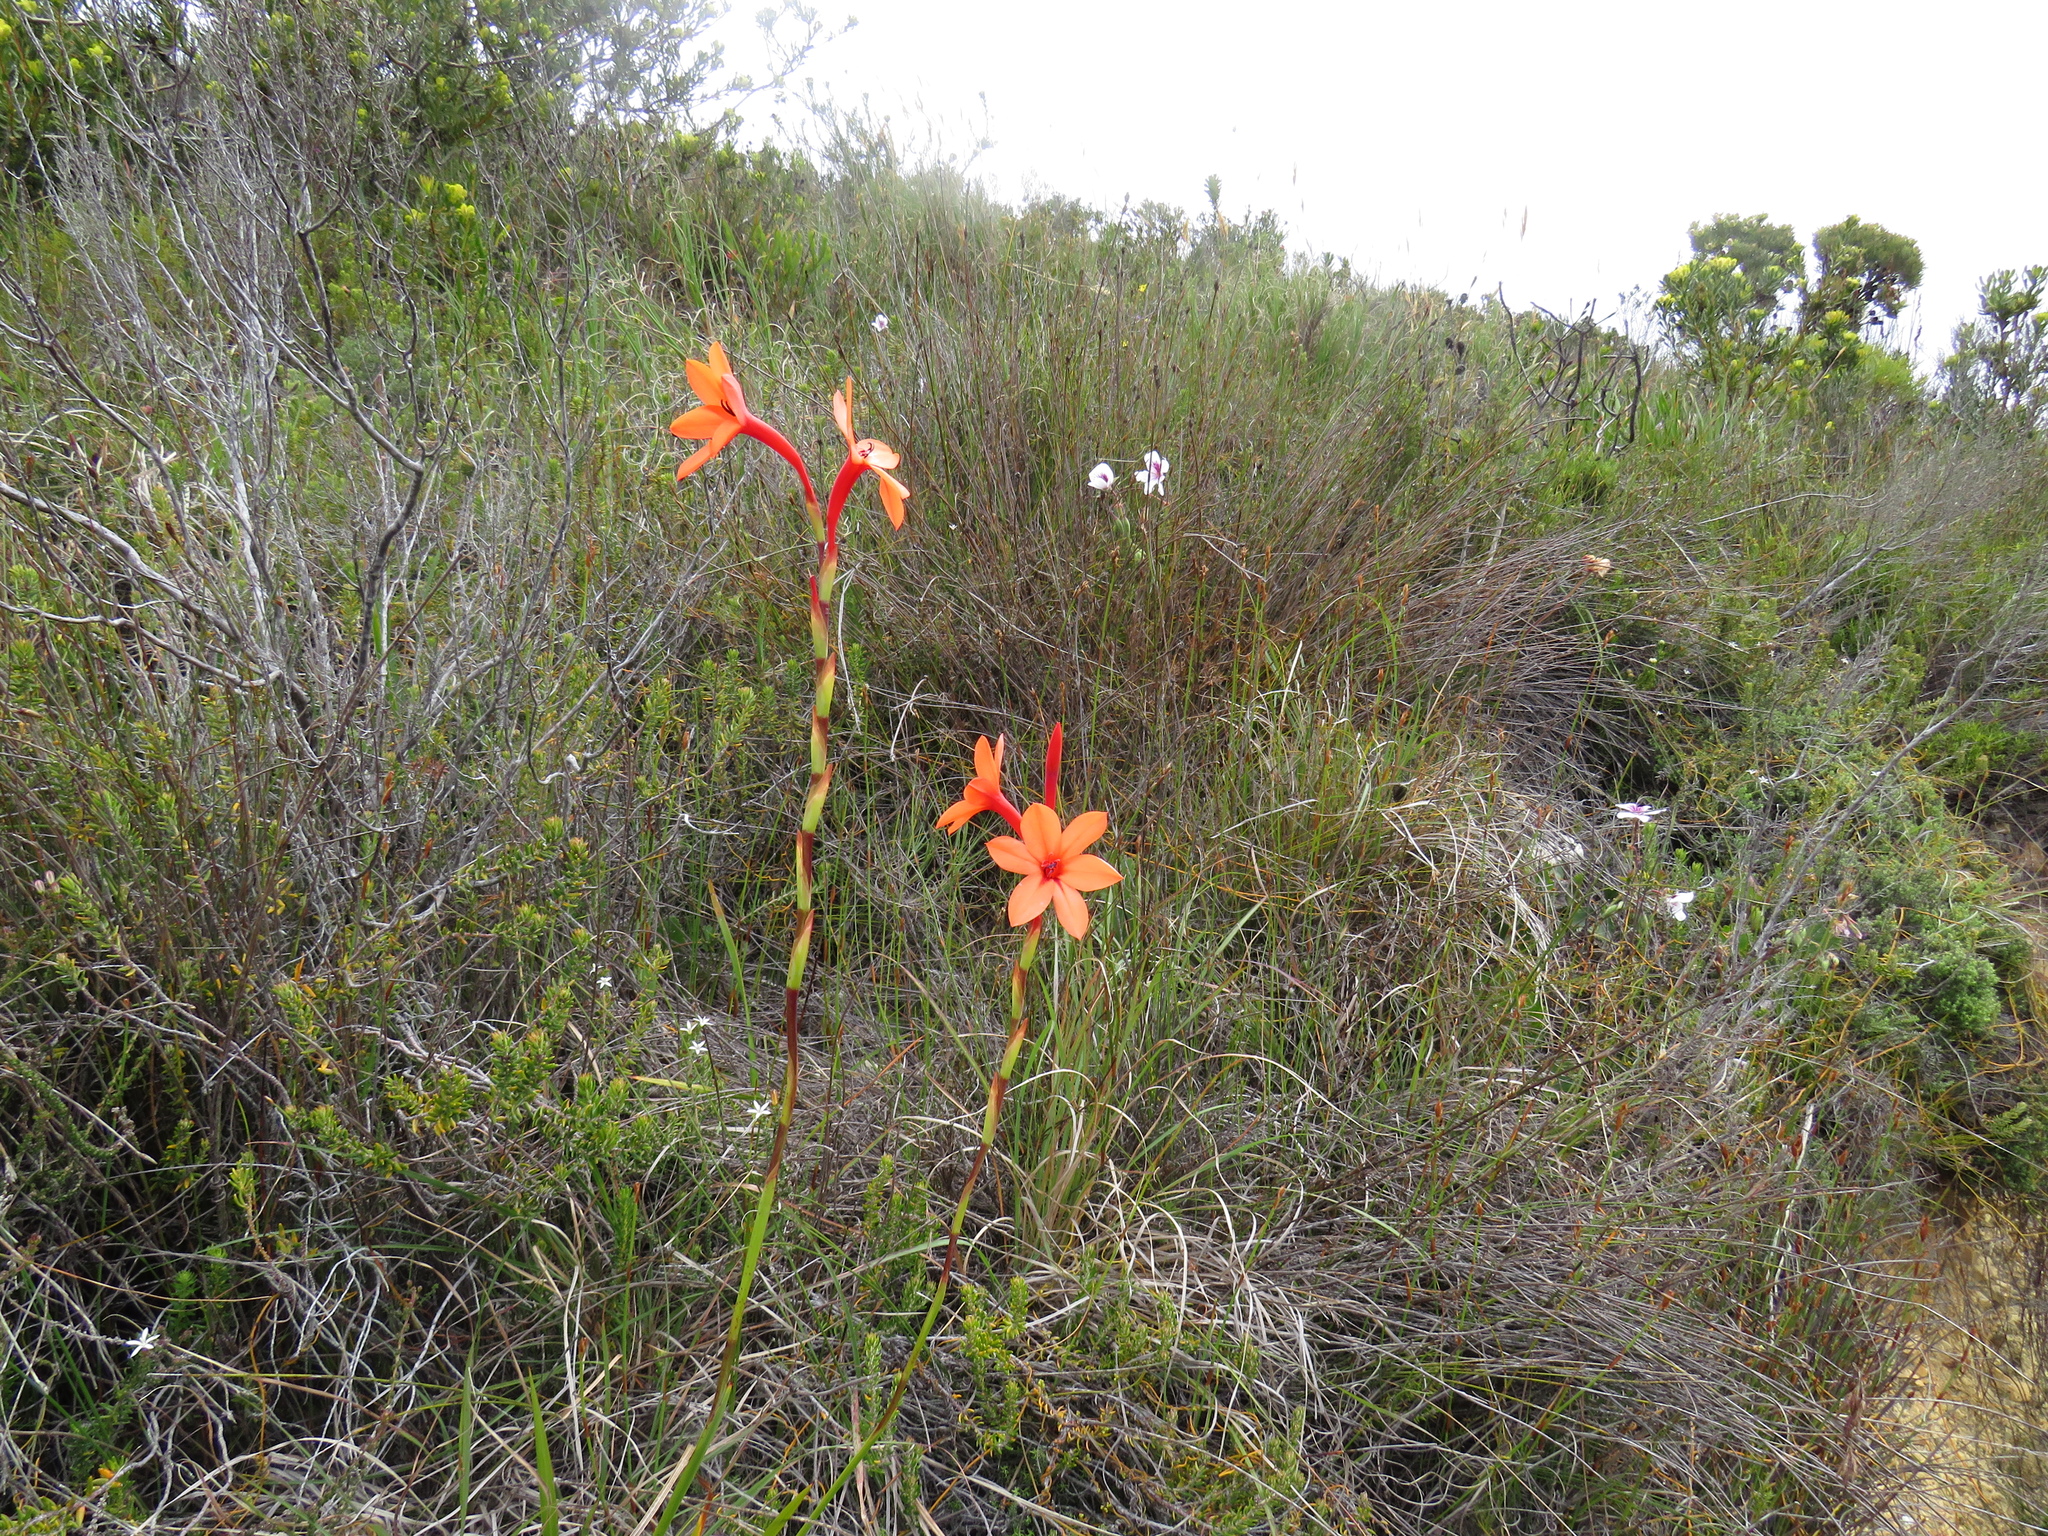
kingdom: Plantae
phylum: Tracheophyta
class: Liliopsida
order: Asparagales
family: Iridaceae
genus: Watsonia
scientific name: Watsonia stenosiphon
